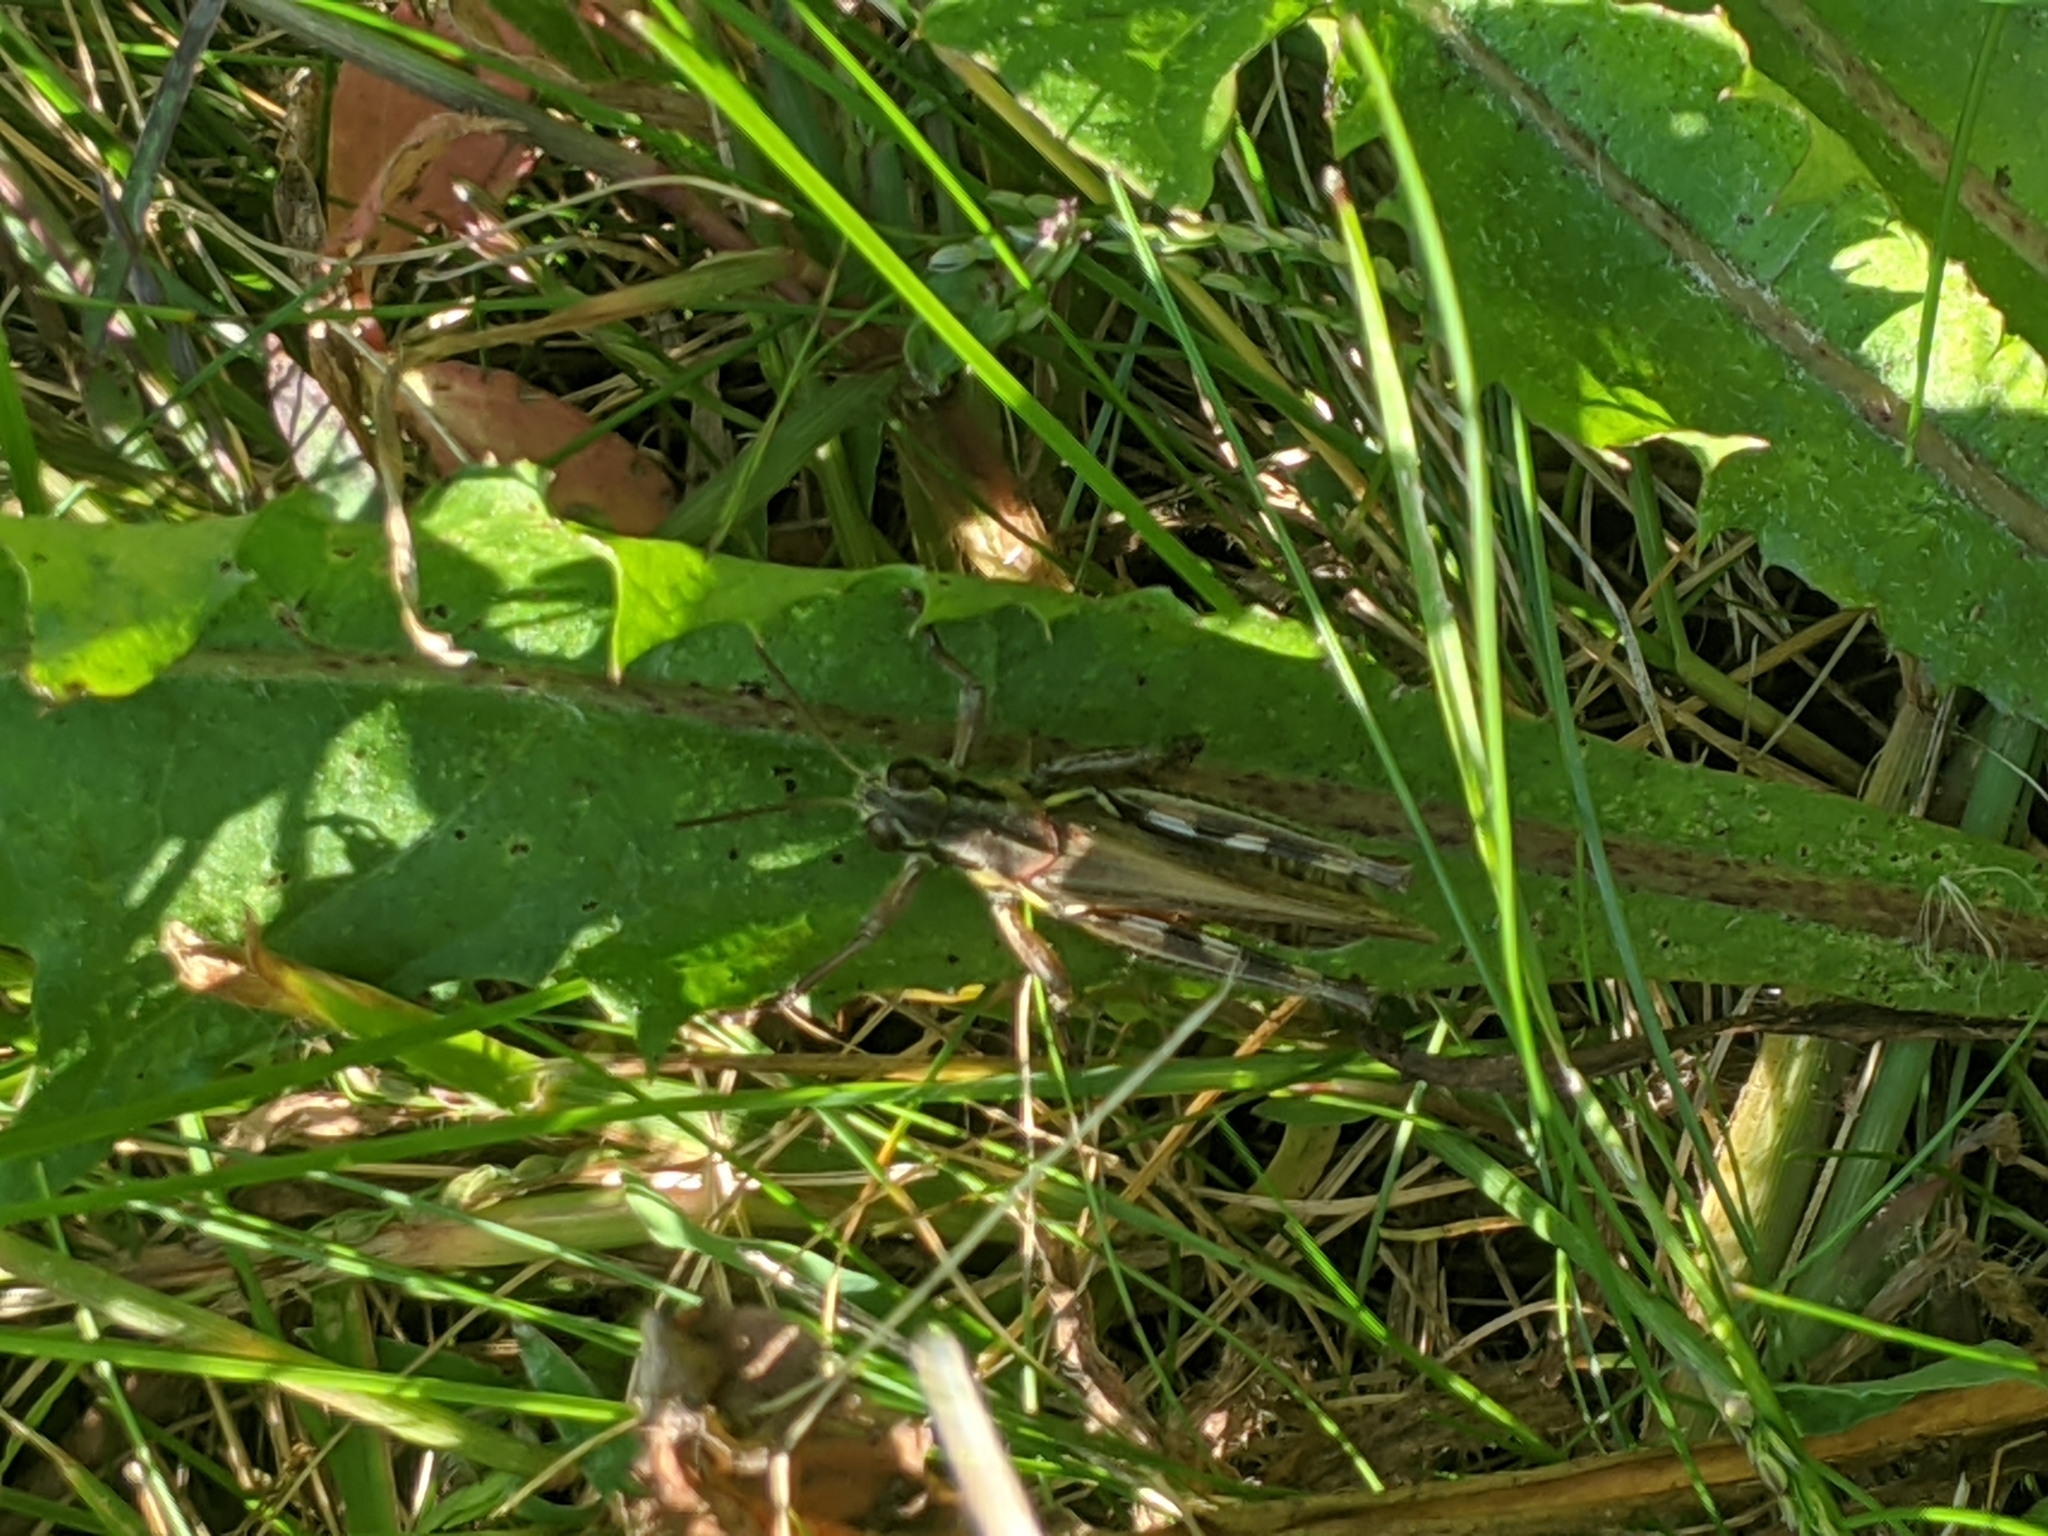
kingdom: Animalia
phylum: Arthropoda
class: Insecta
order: Orthoptera
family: Acrididae
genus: Melanoplus
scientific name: Melanoplus femurrubrum
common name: Red-legged grasshopper
